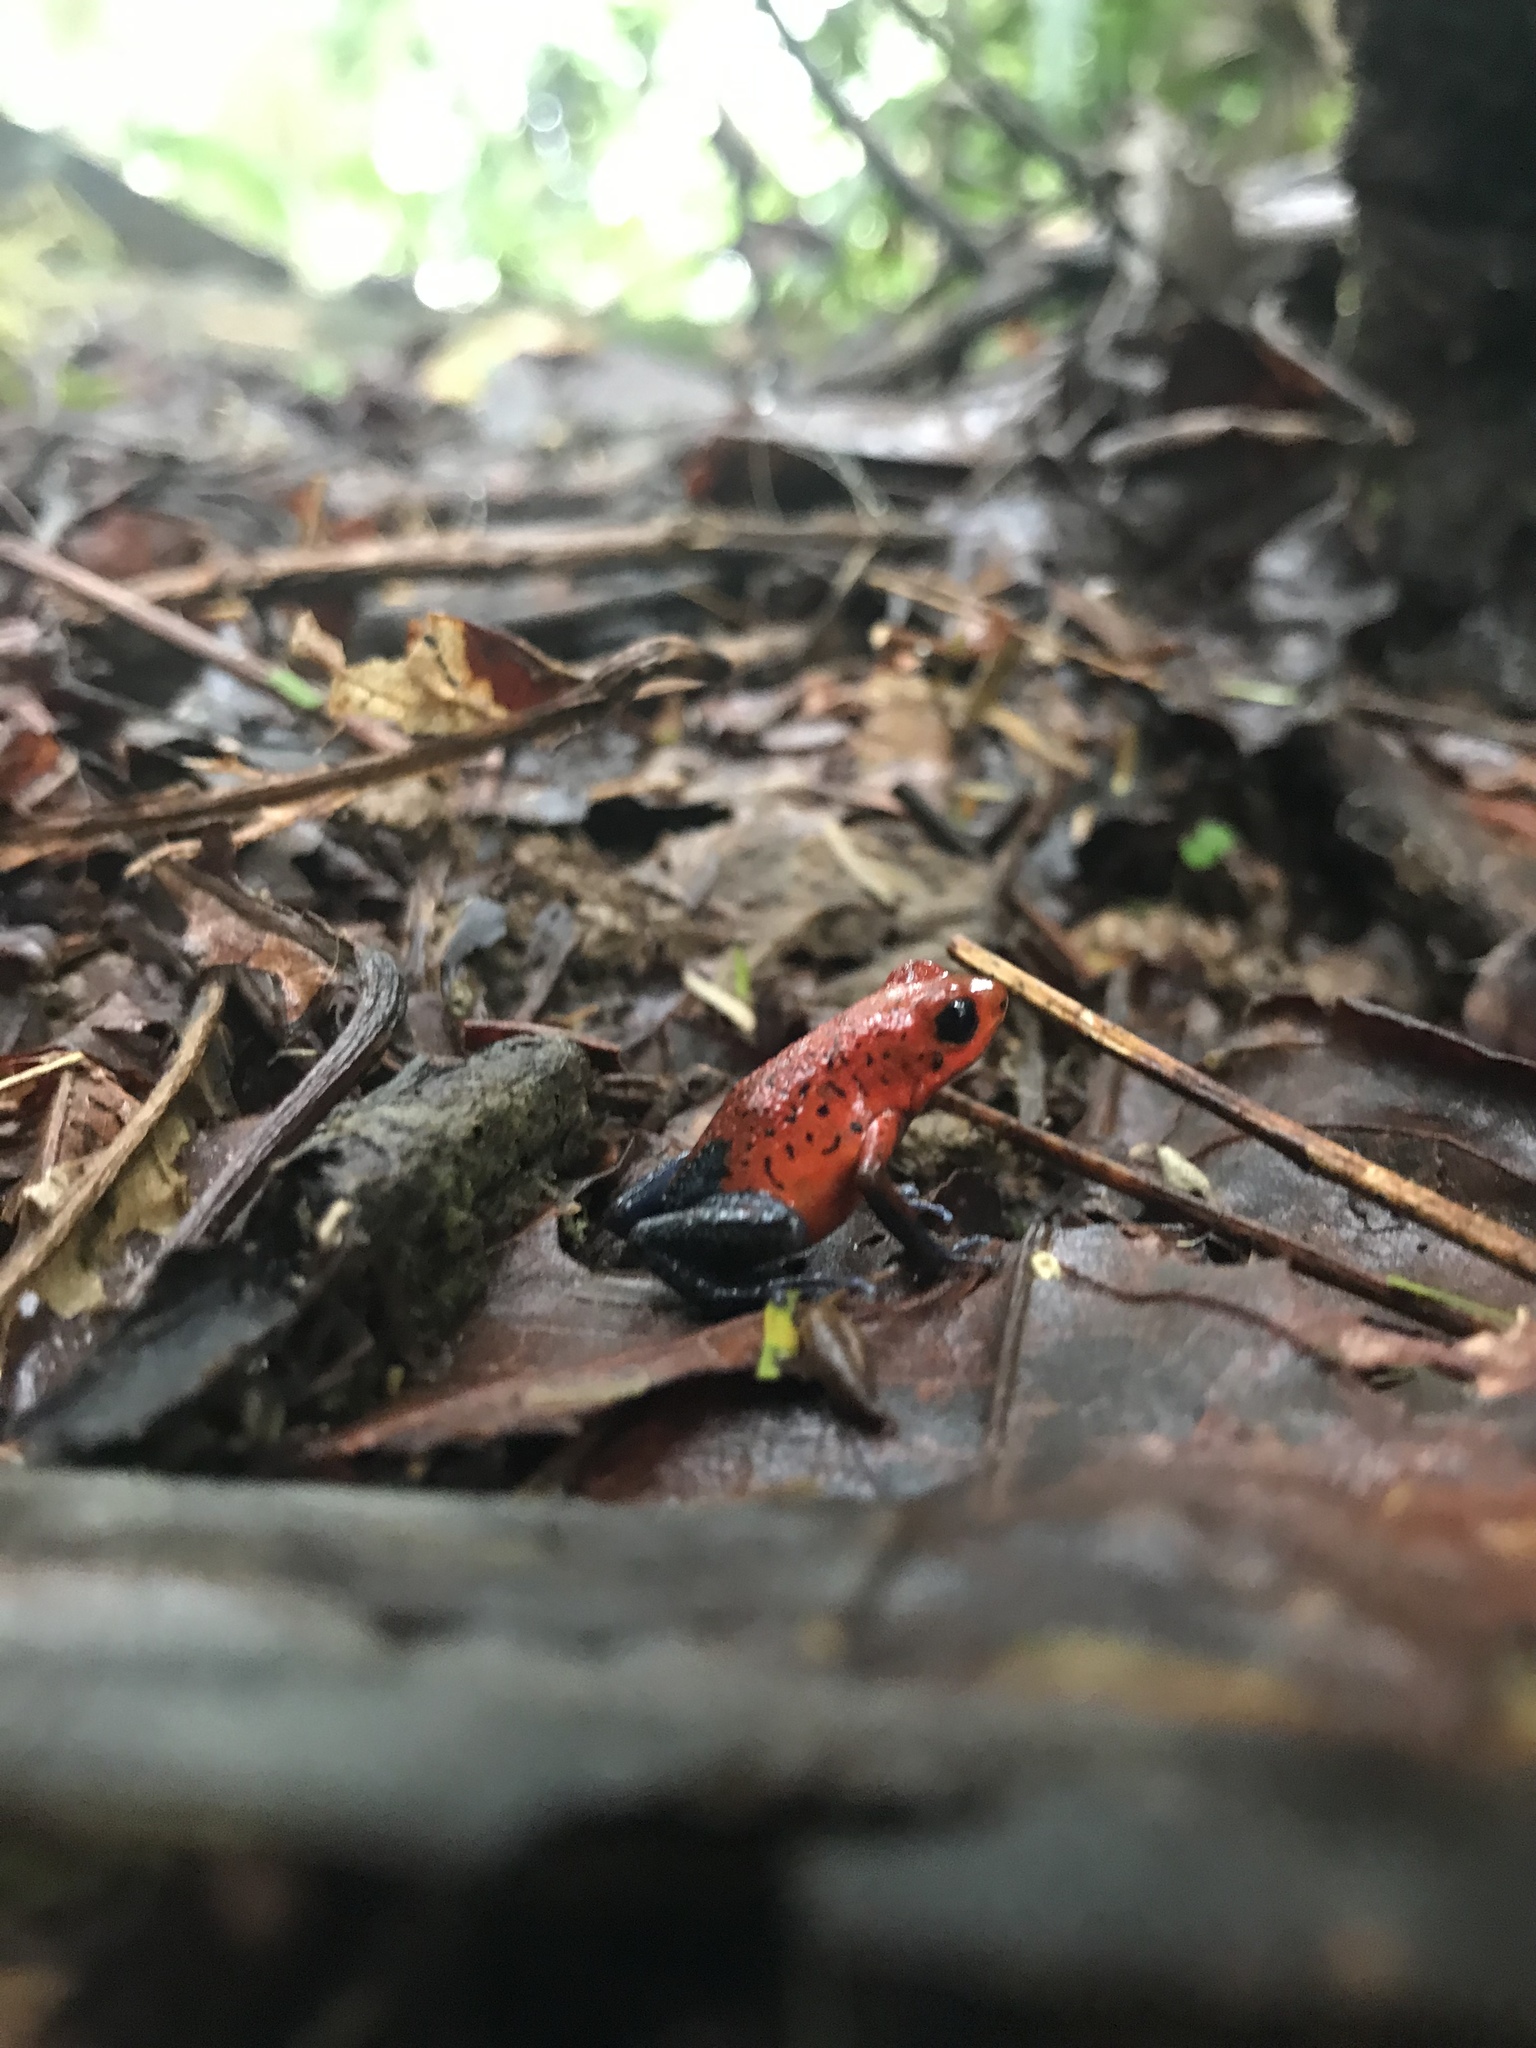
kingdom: Animalia
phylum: Chordata
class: Amphibia
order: Anura
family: Dendrobatidae
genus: Oophaga
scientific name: Oophaga pumilio
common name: Flaming poison frog
